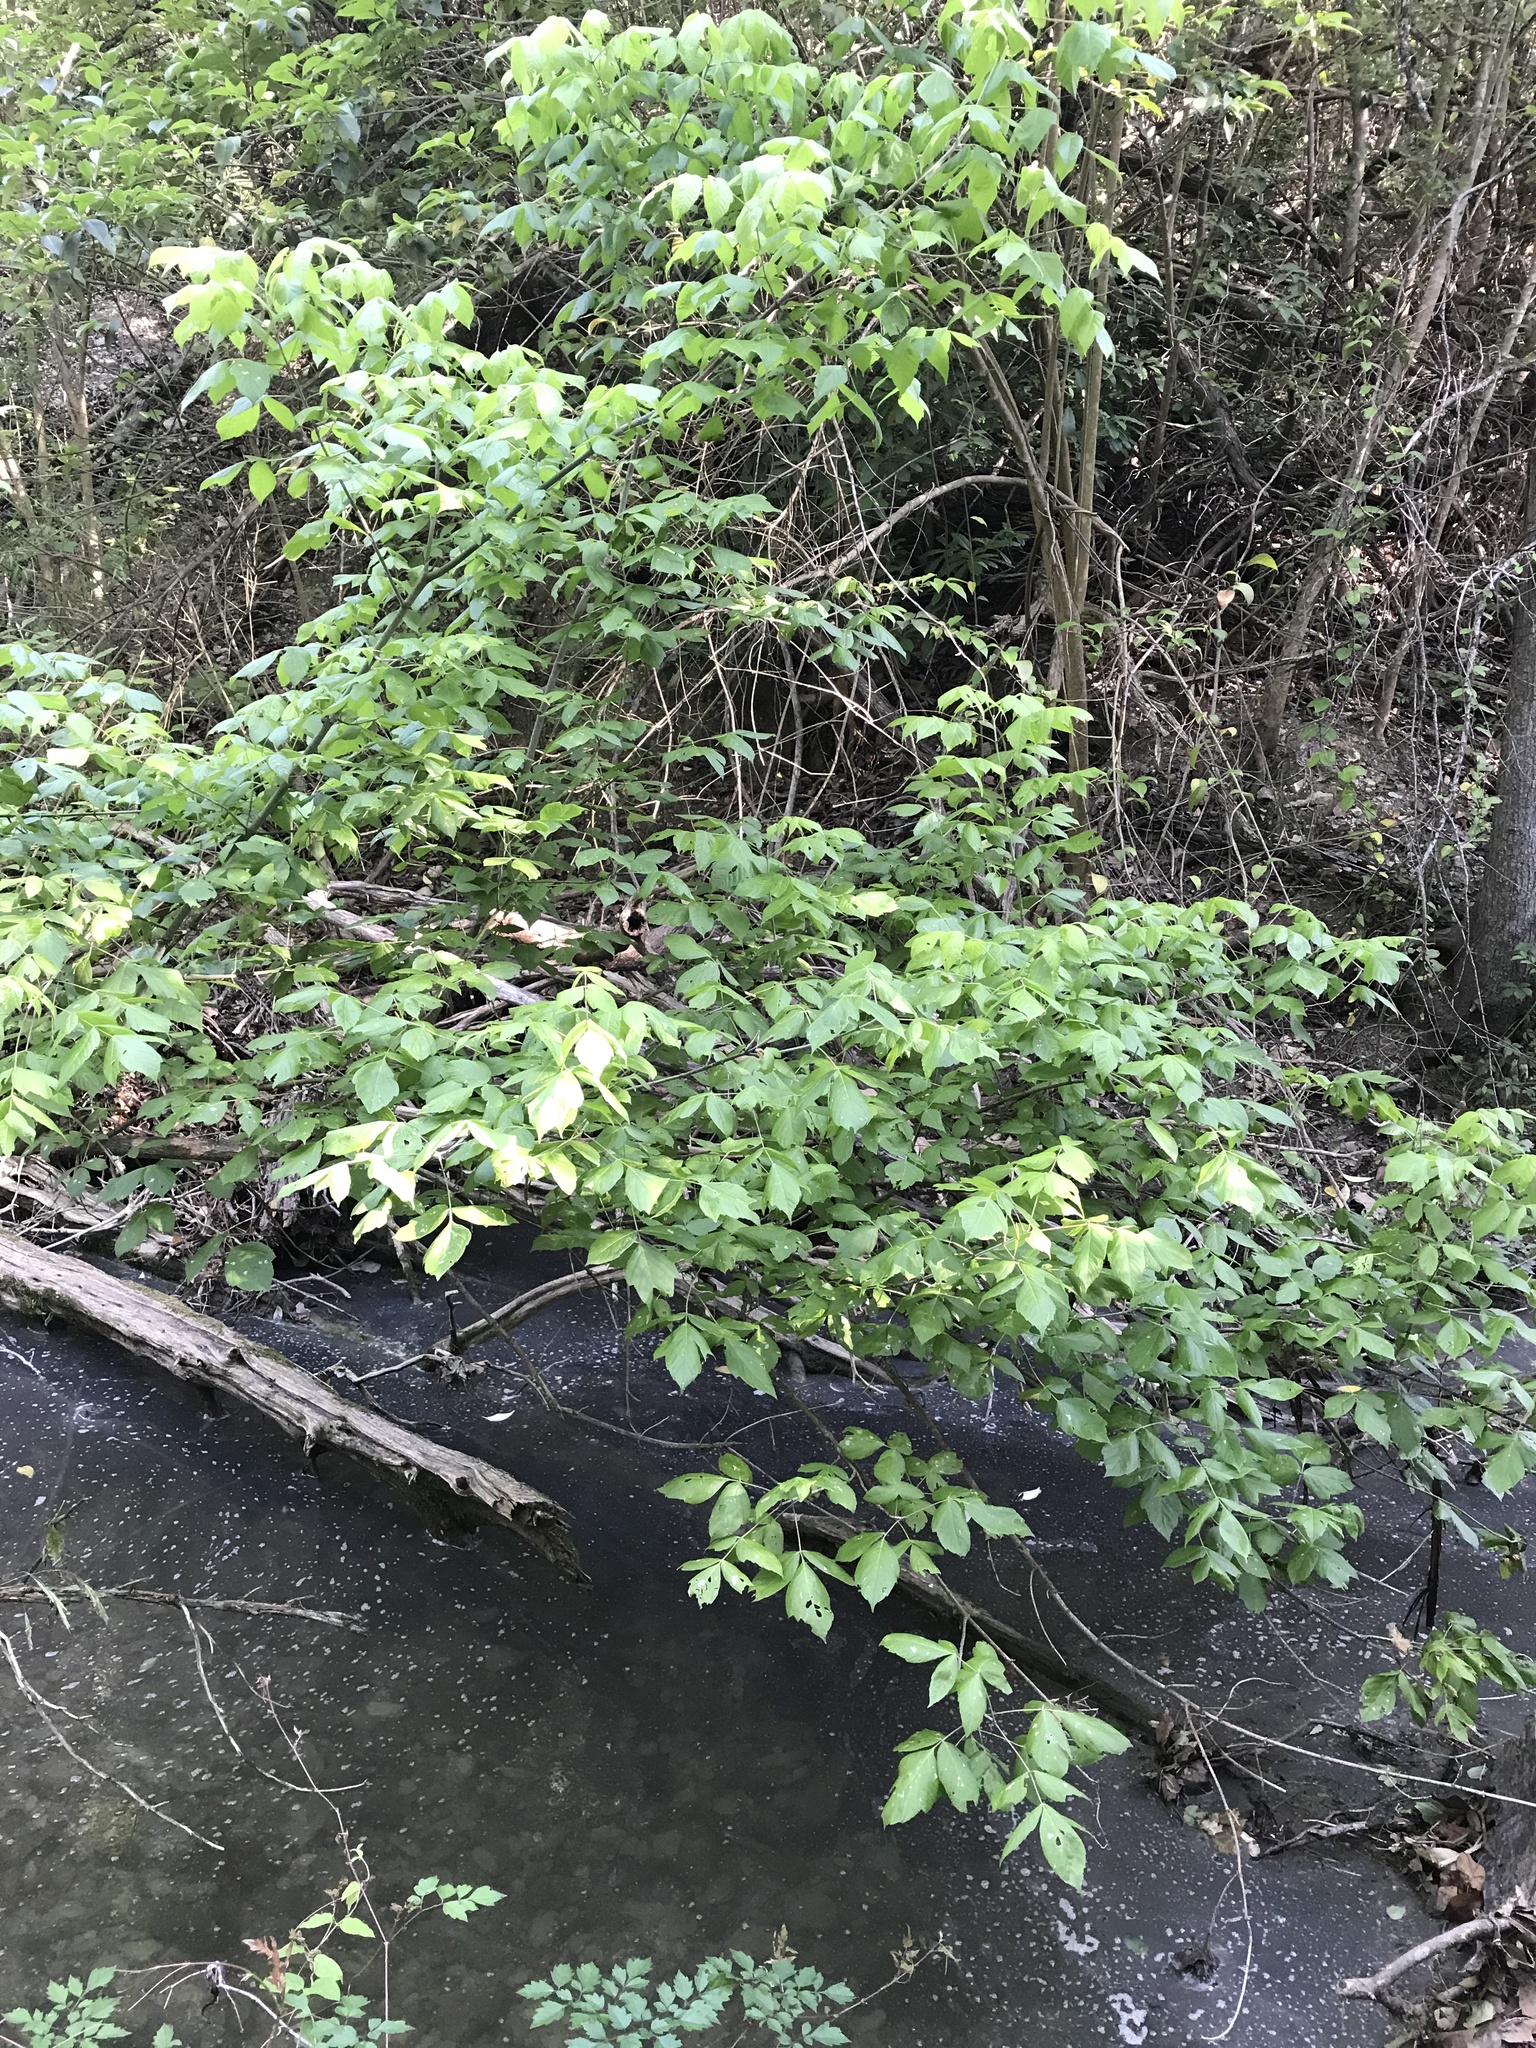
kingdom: Plantae
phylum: Tracheophyta
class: Magnoliopsida
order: Sapindales
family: Sapindaceae
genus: Acer
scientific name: Acer negundo
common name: Ashleaf maple
